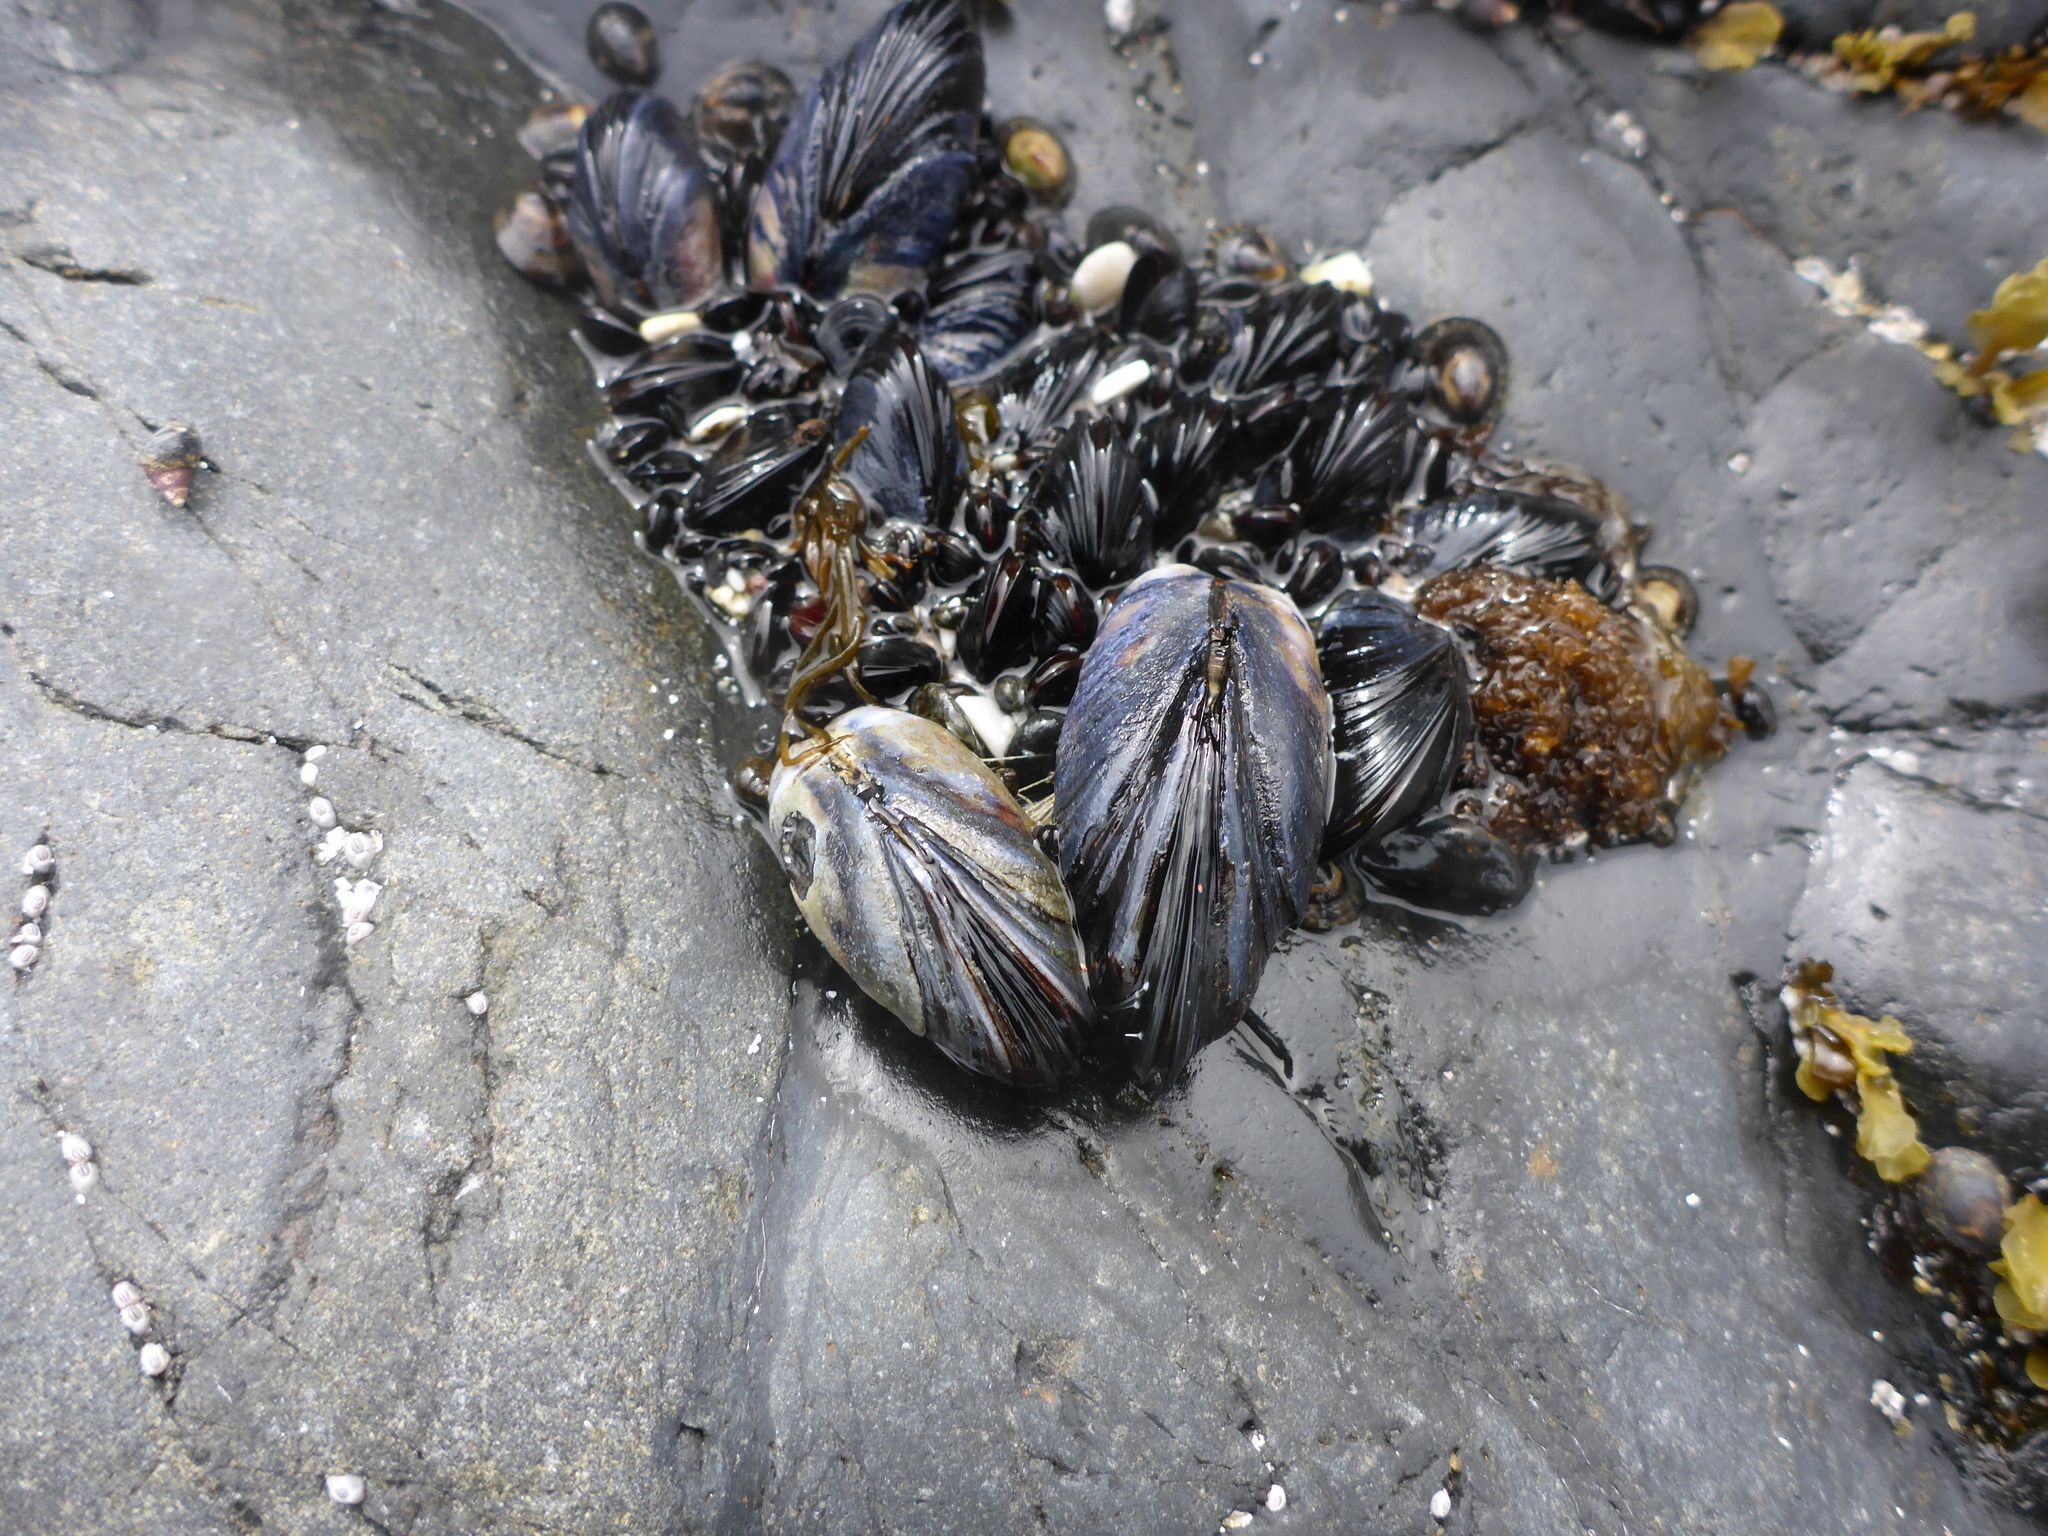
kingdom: Animalia
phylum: Mollusca
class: Bivalvia
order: Mytilida
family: Mytilidae
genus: Mytilus
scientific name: Mytilus californianus
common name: California mussel
